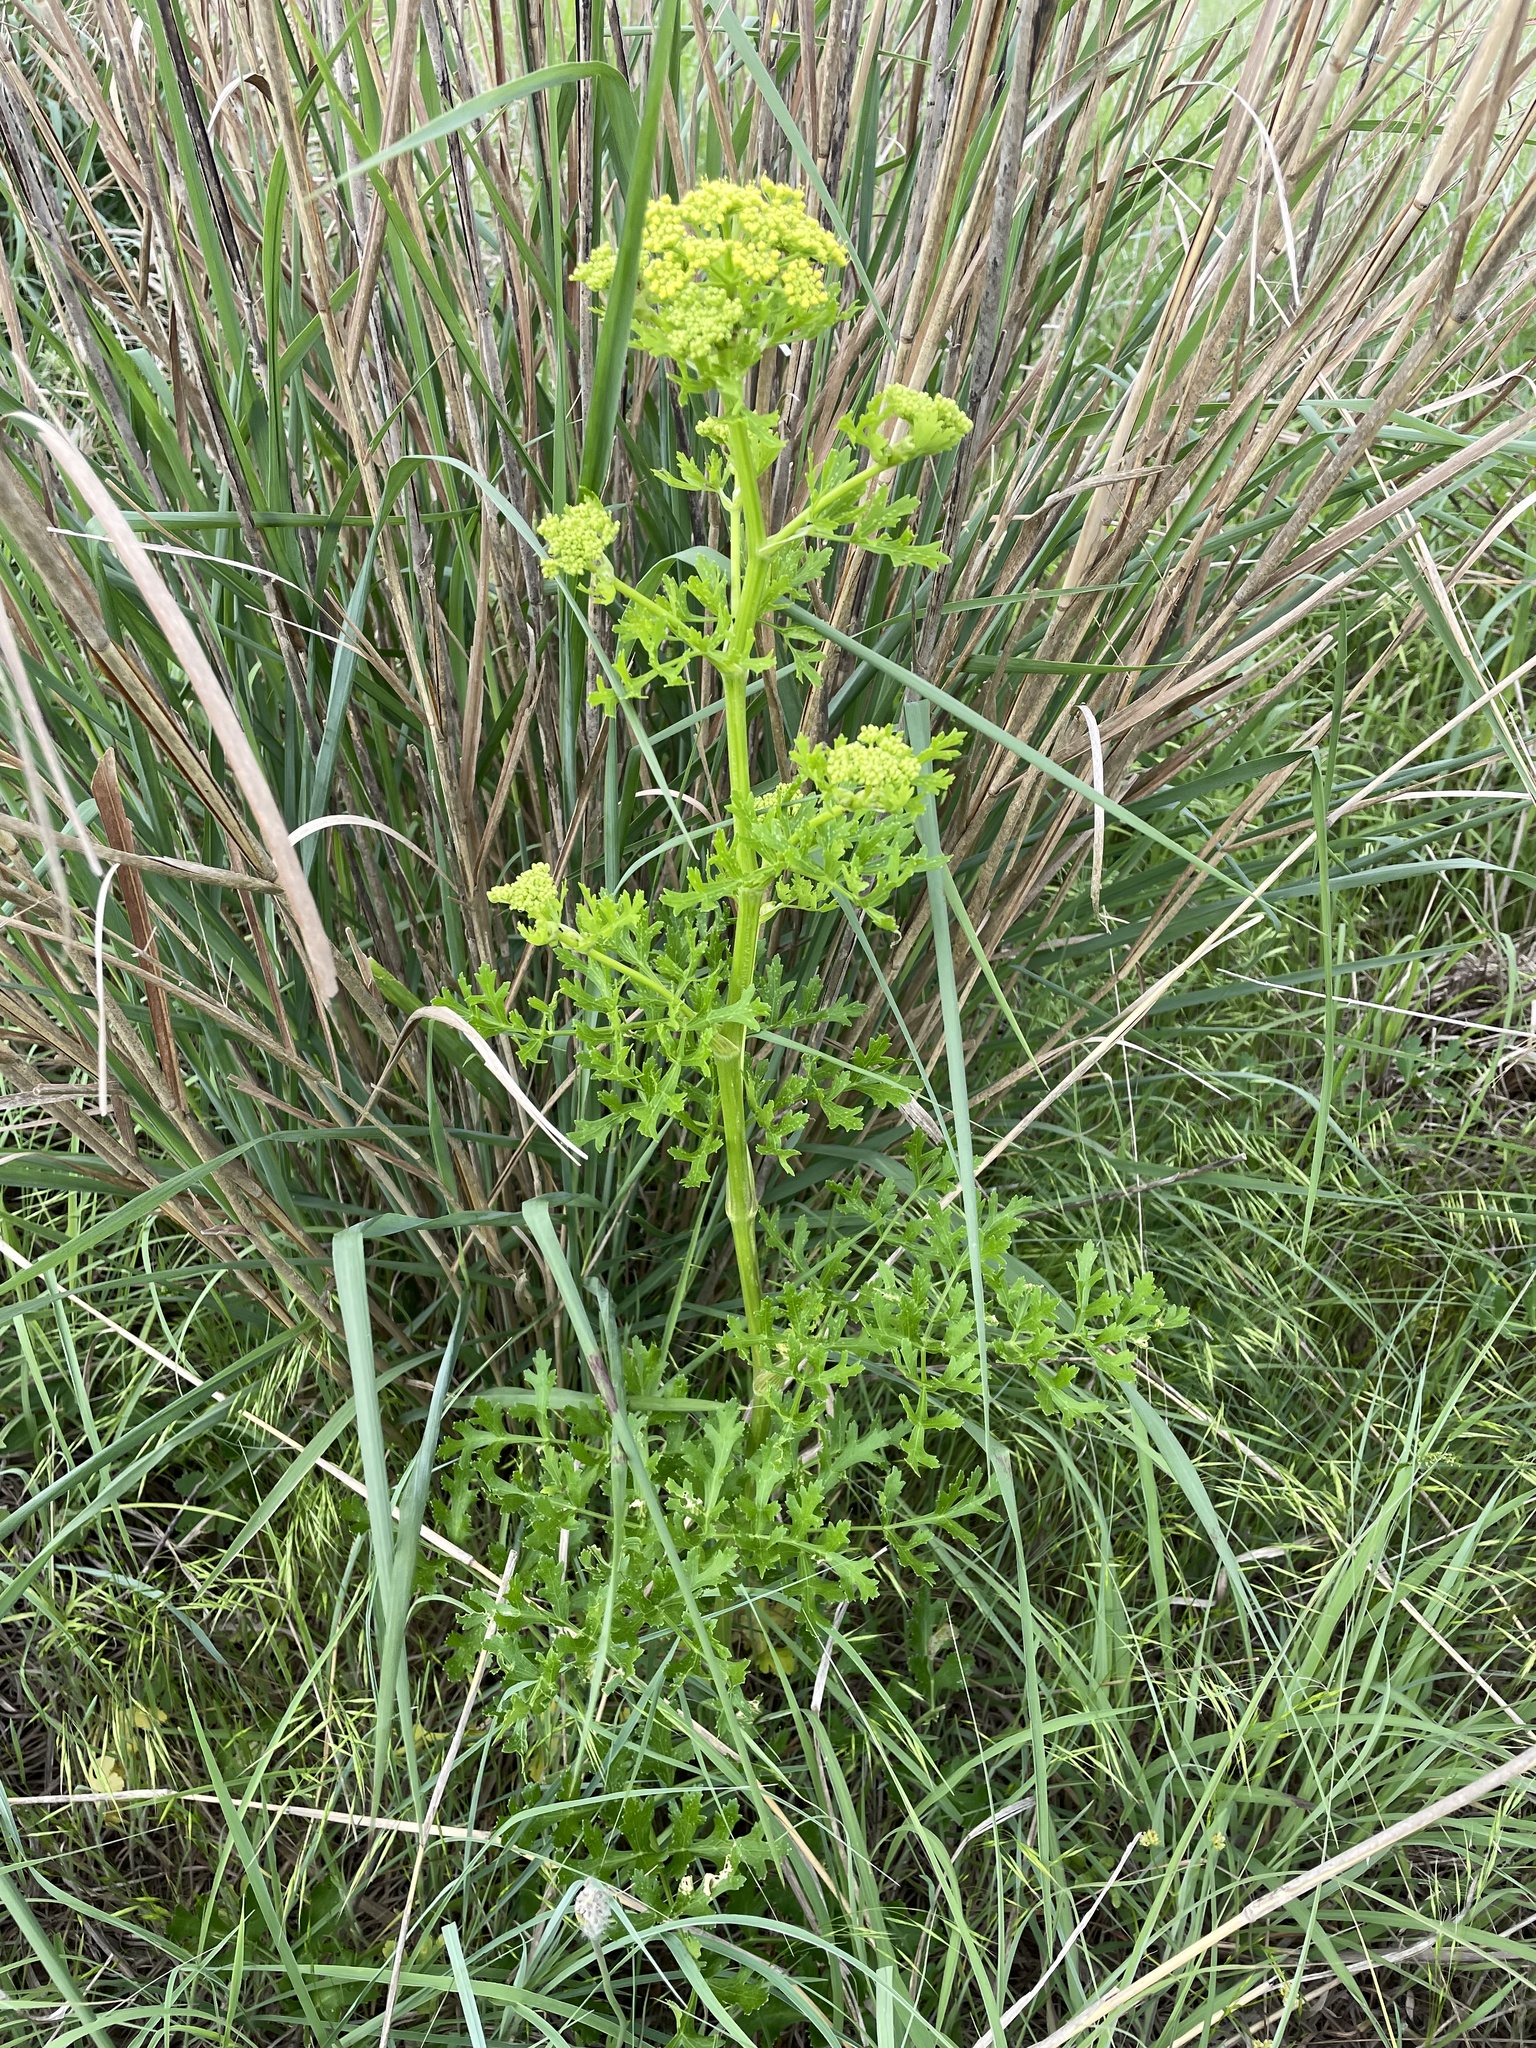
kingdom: Plantae
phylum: Tracheophyta
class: Magnoliopsida
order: Apiales
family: Apiaceae
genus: Polytaenia
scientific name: Polytaenia texana
